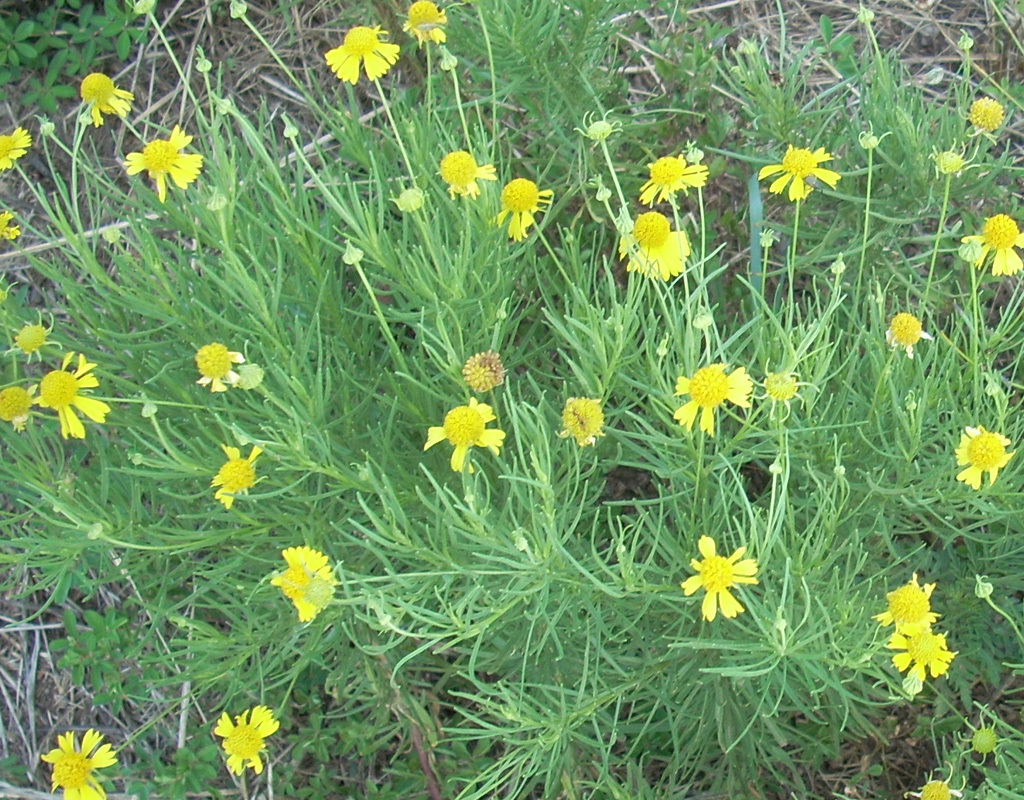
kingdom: Plantae
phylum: Tracheophyta
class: Magnoliopsida
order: Asterales
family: Asteraceae
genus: Helenium
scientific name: Helenium amarum
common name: Bitter sneezeweed
